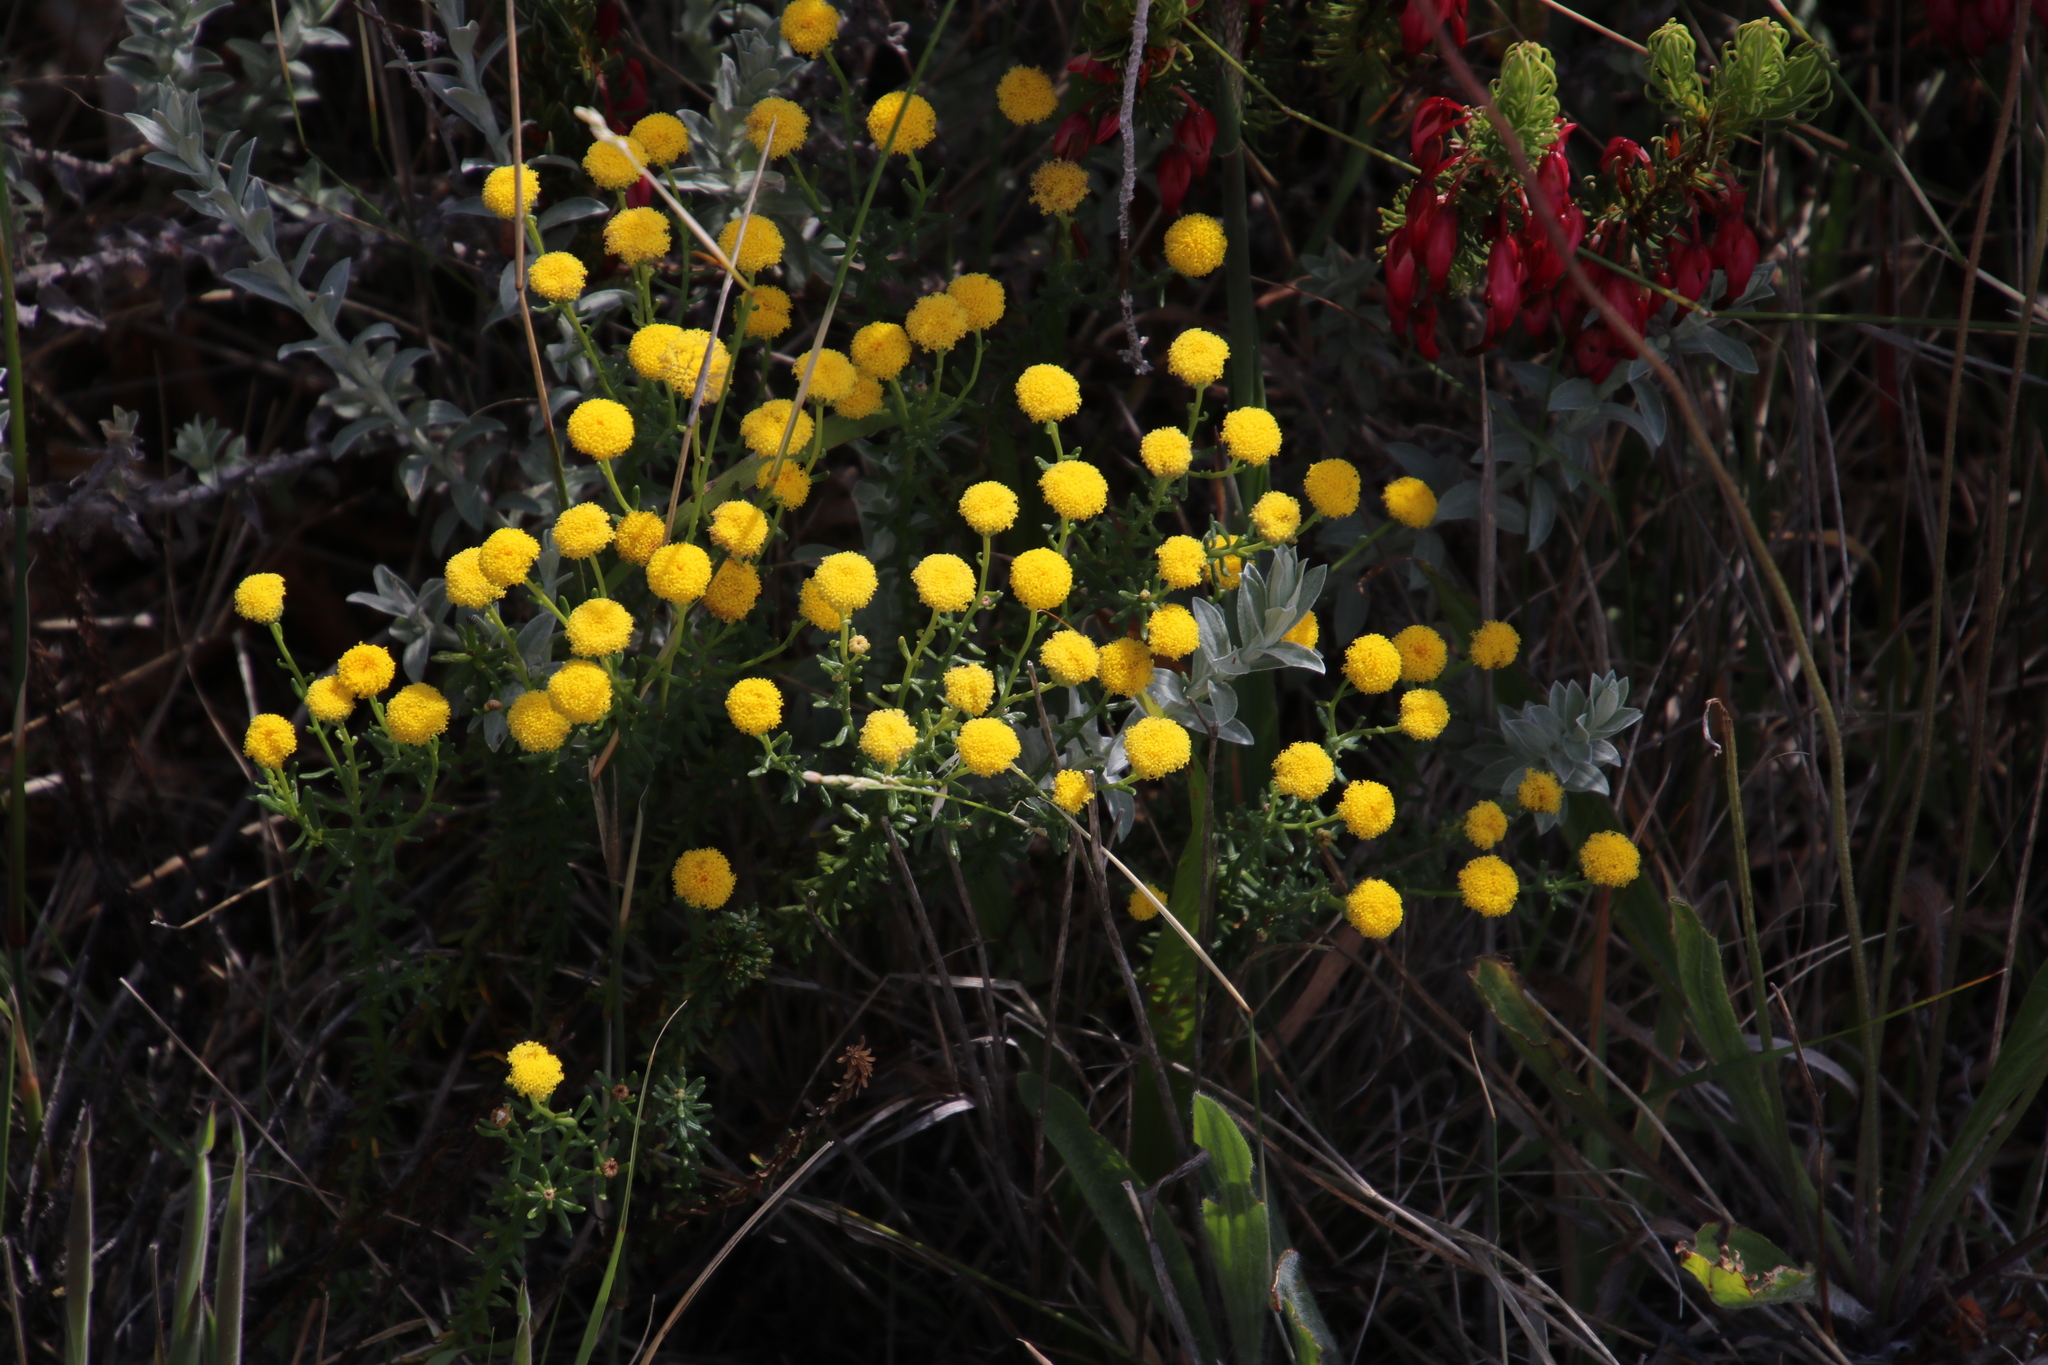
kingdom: Plantae
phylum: Tracheophyta
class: Magnoliopsida
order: Asterales
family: Asteraceae
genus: Chrysocoma
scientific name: Chrysocoma cernua
